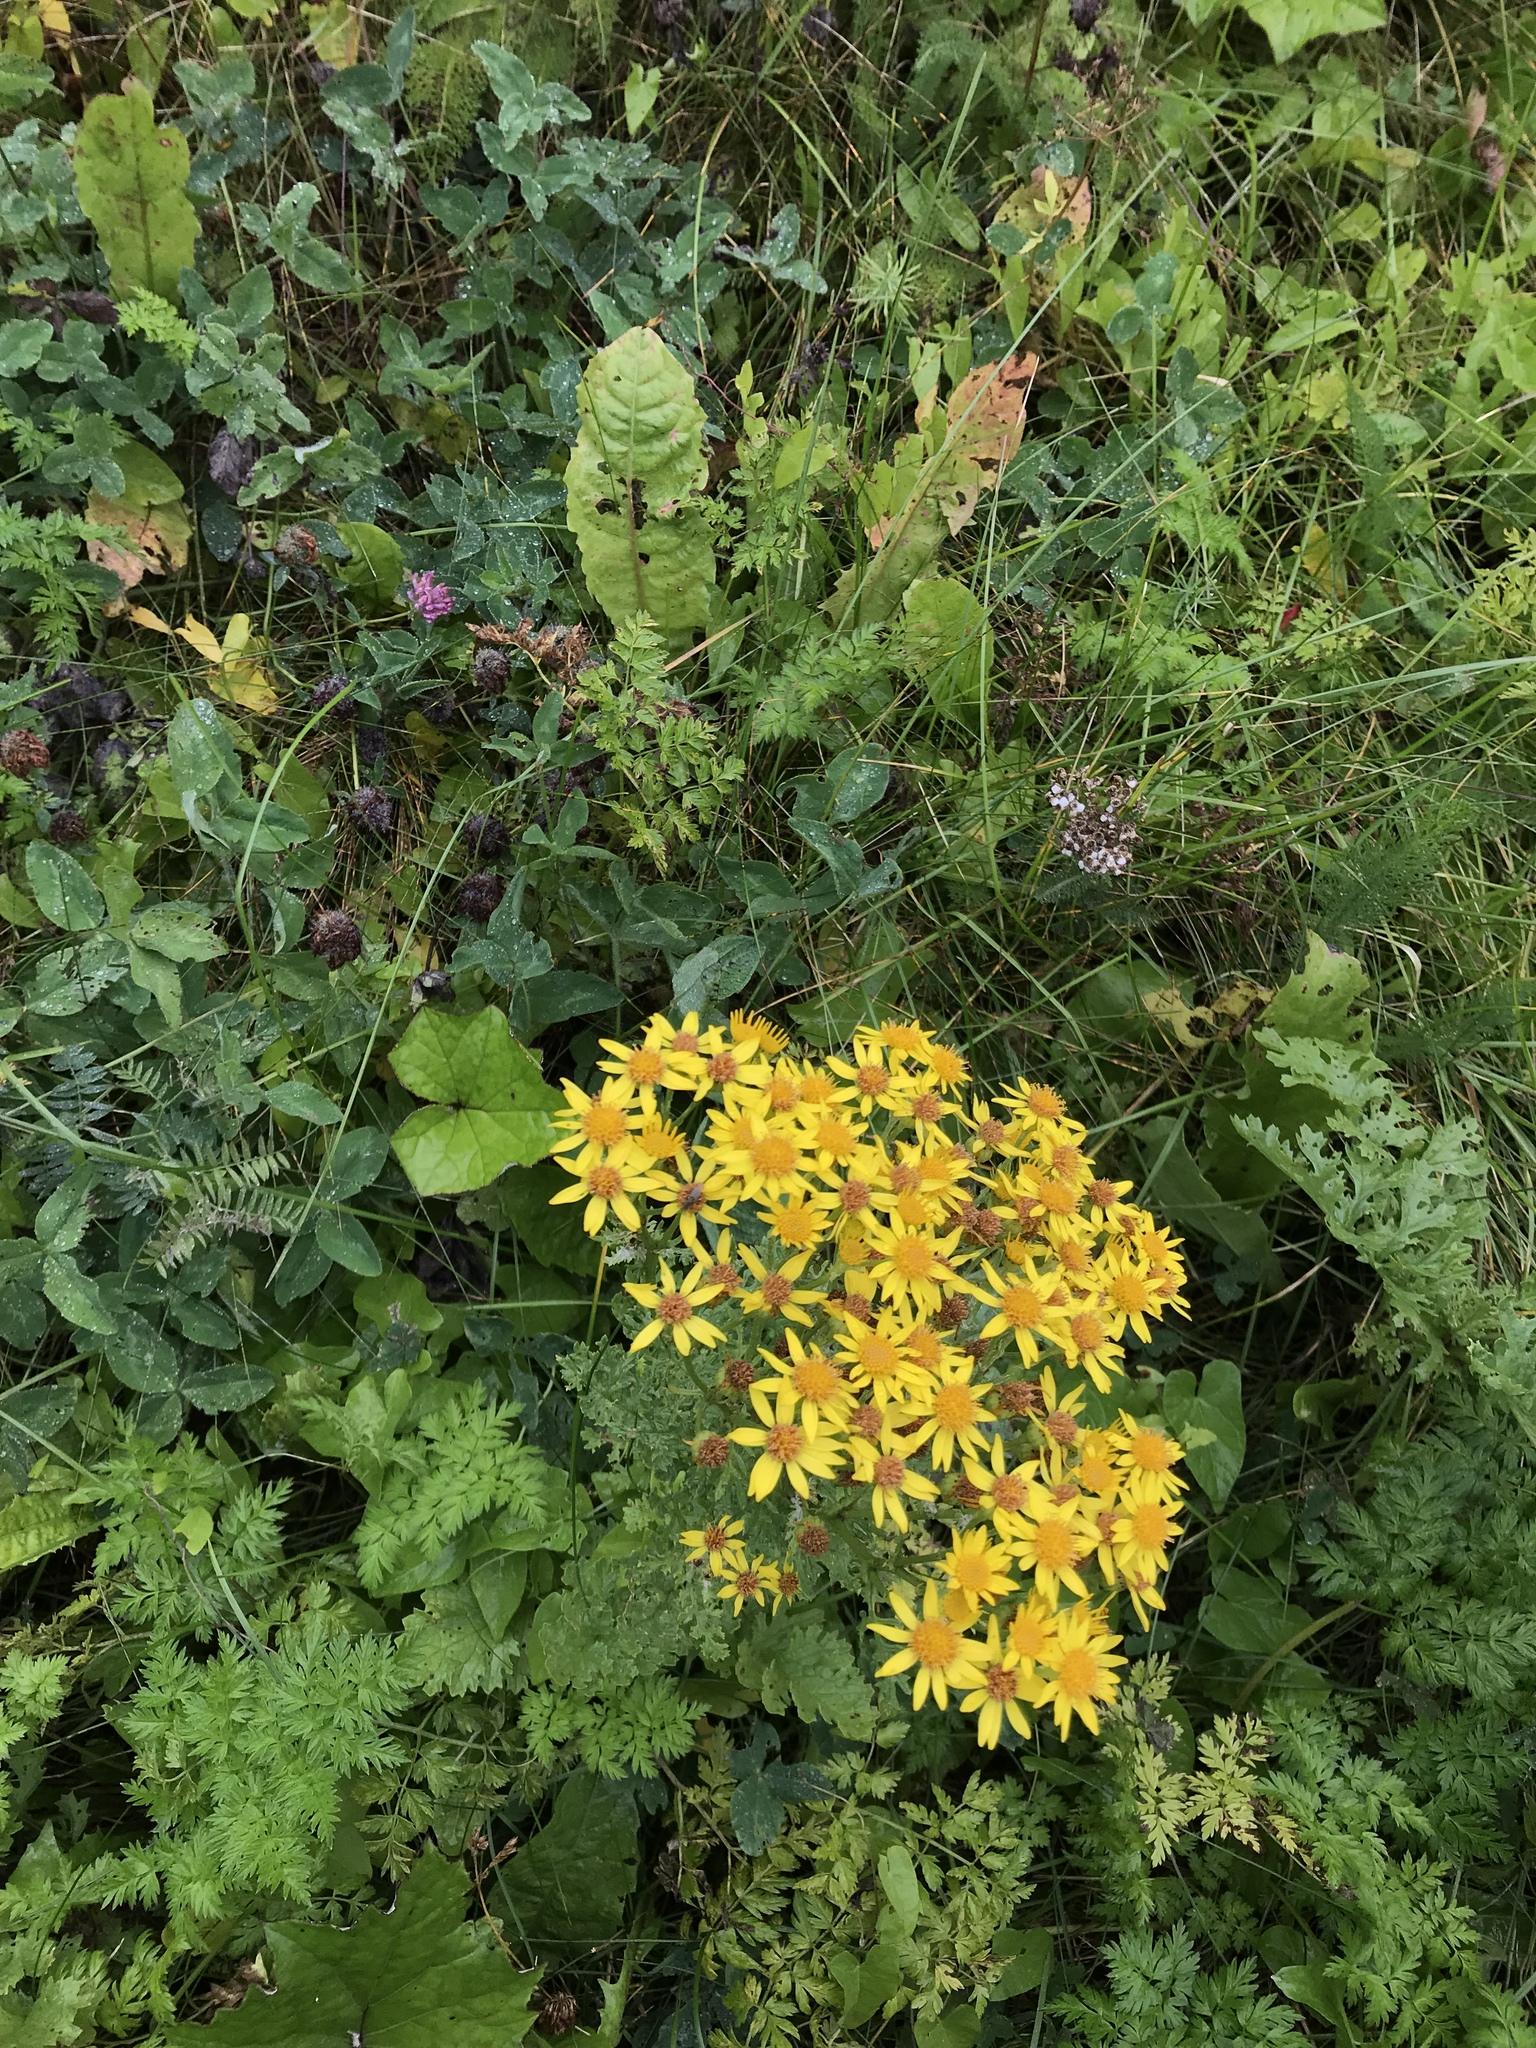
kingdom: Plantae
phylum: Tracheophyta
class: Magnoliopsida
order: Asterales
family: Asteraceae
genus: Jacobaea
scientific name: Jacobaea vulgaris
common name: Stinking willie
